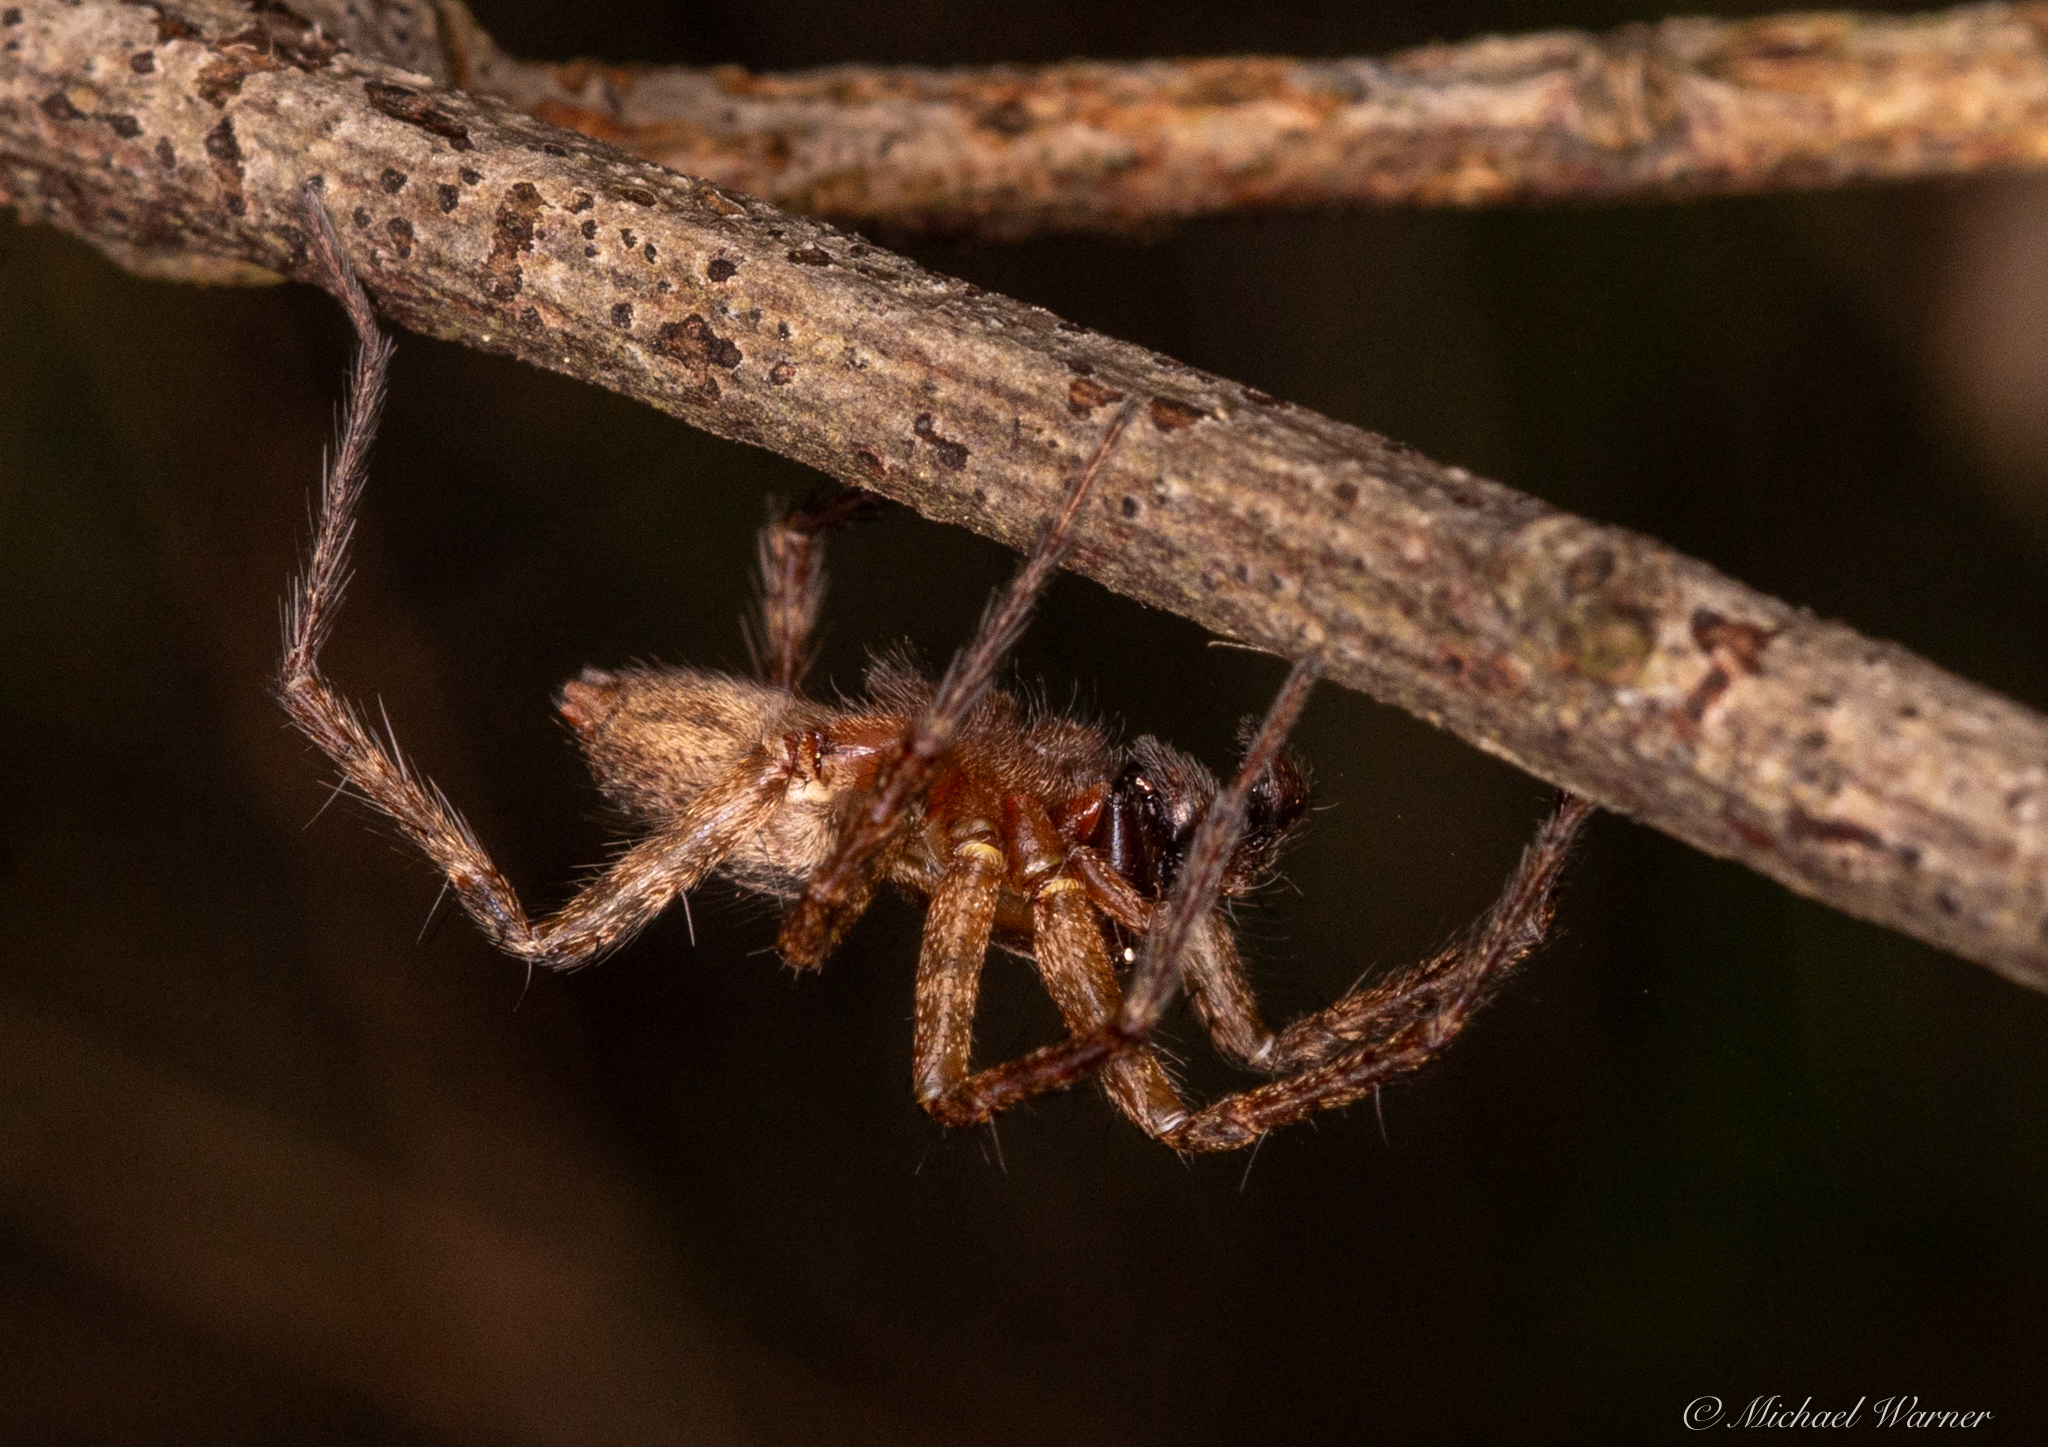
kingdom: Animalia
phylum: Arthropoda
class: Arachnida
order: Araneae
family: Agelenidae
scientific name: Agelenidae
